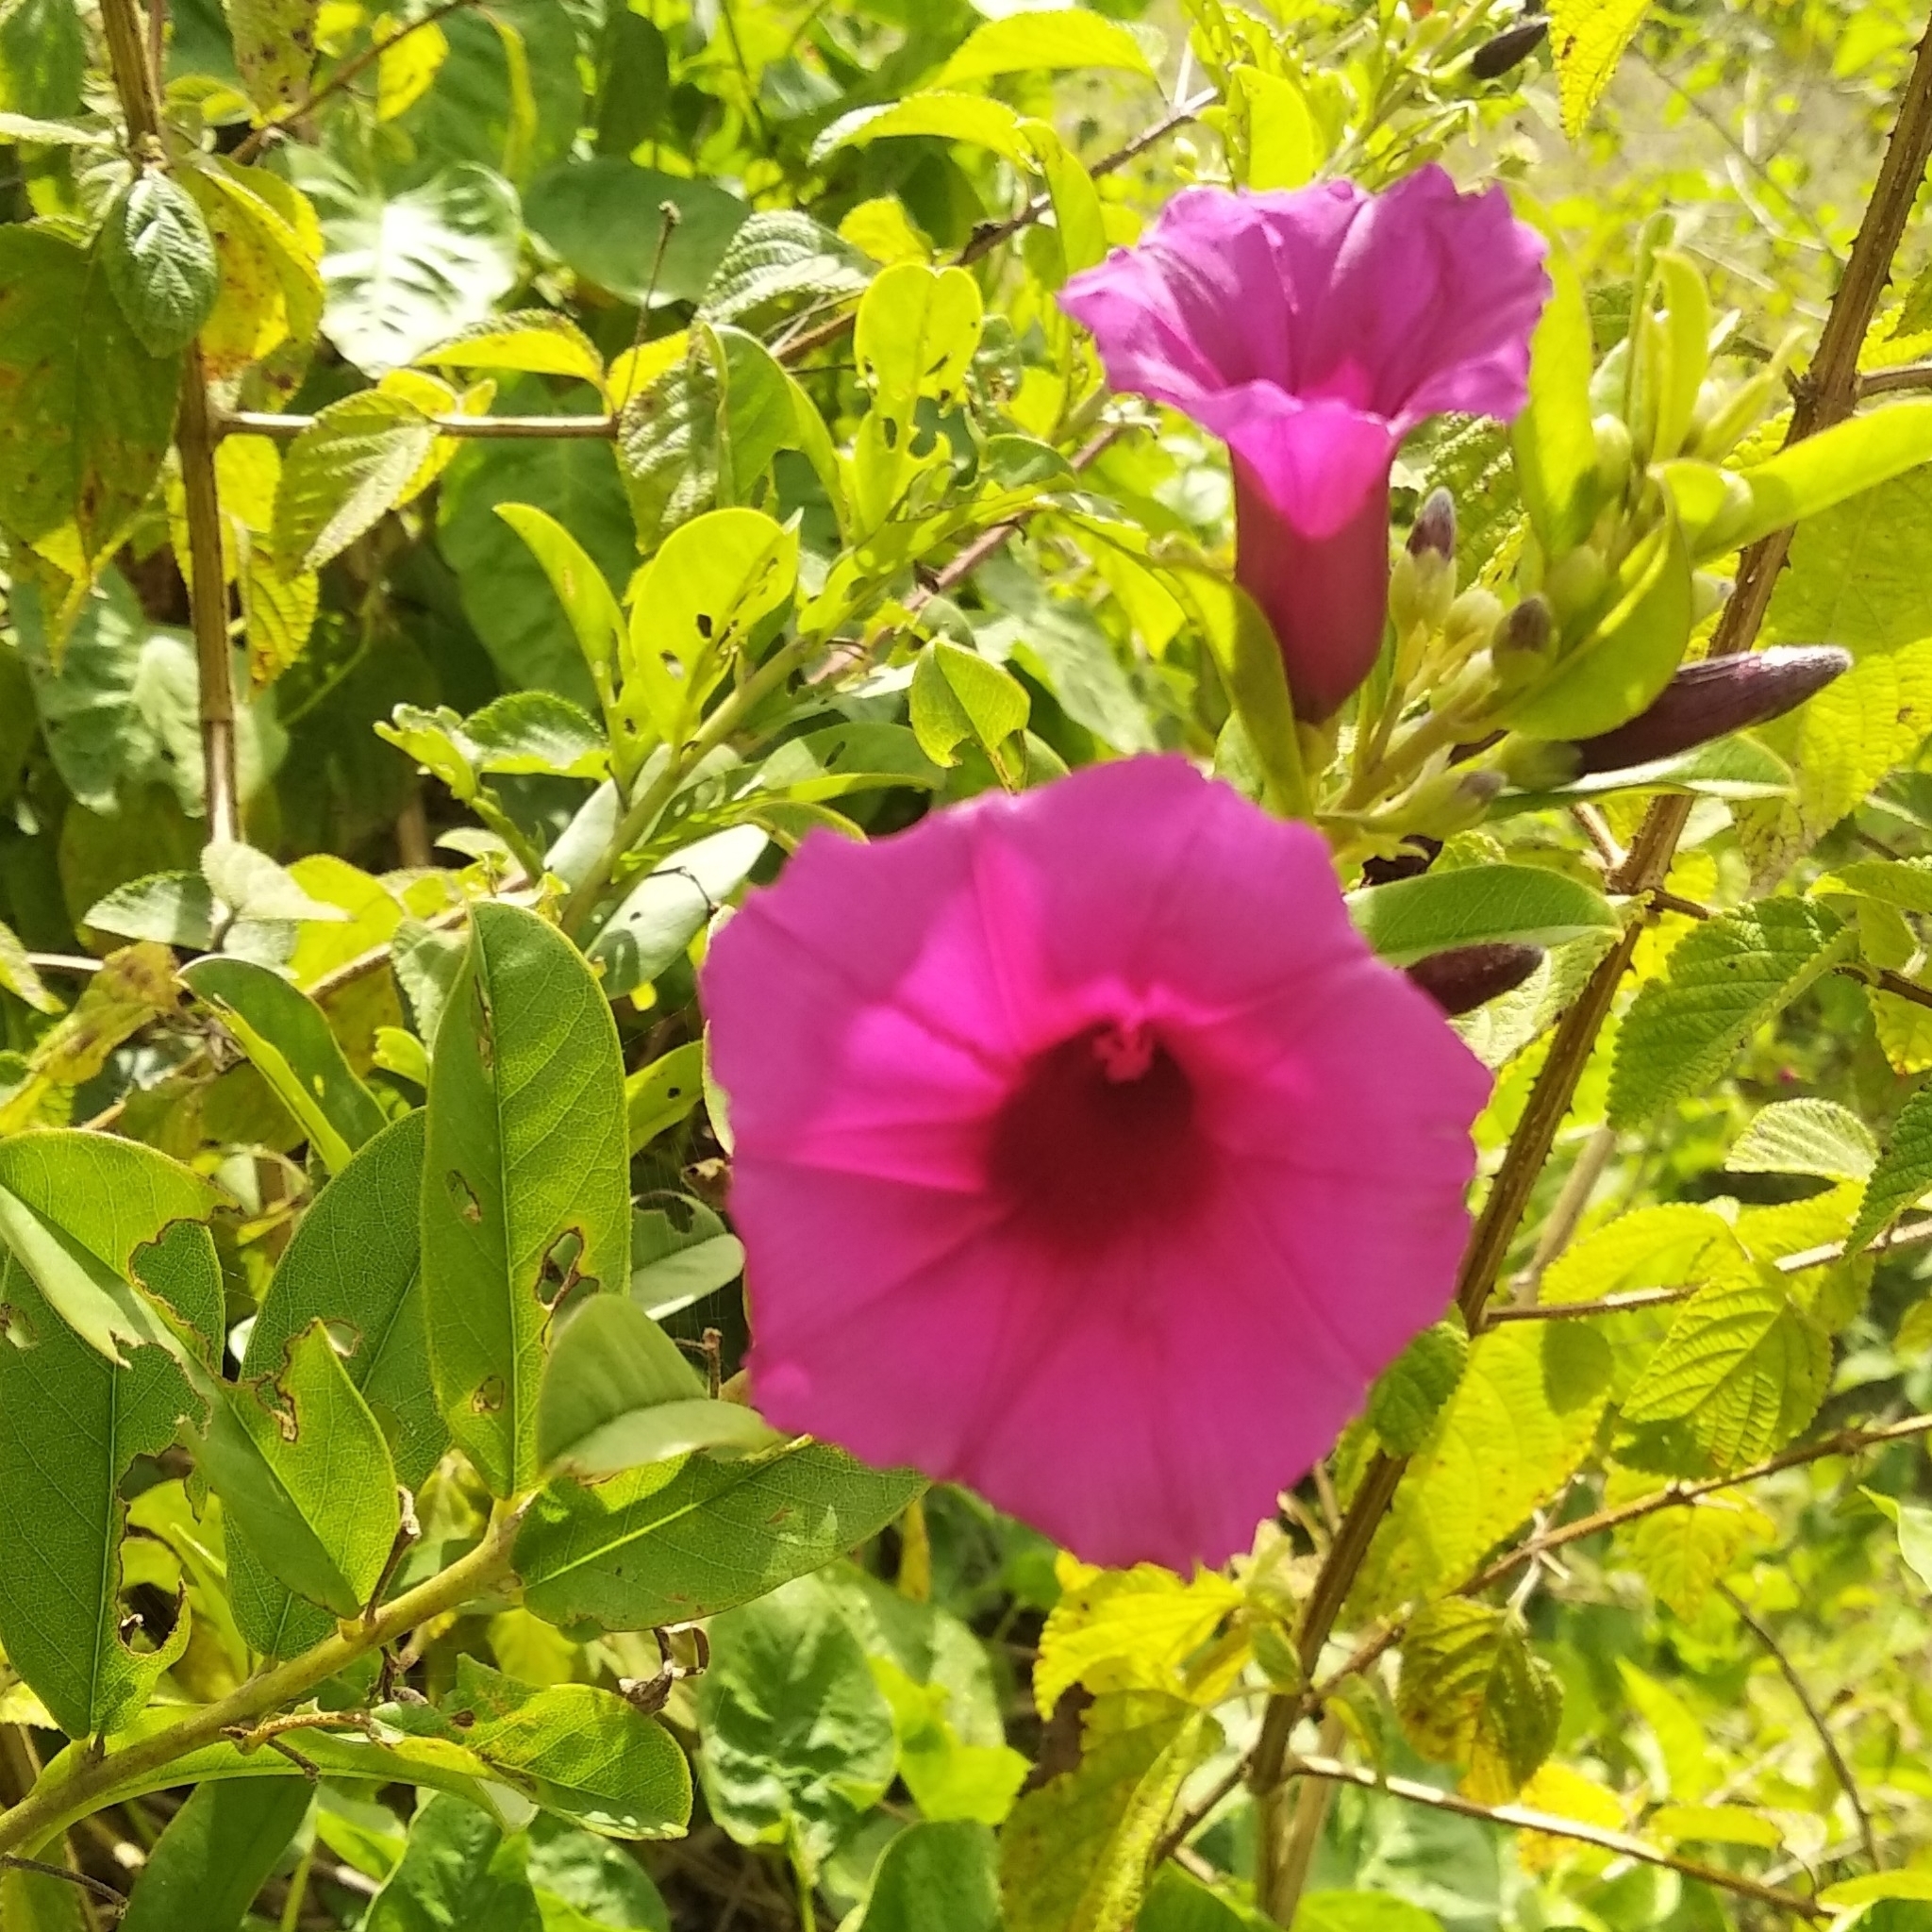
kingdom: Plantae
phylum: Tracheophyta
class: Magnoliopsida
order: Solanales
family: Convolvulaceae
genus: Argyreia
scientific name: Argyreia cuneata
